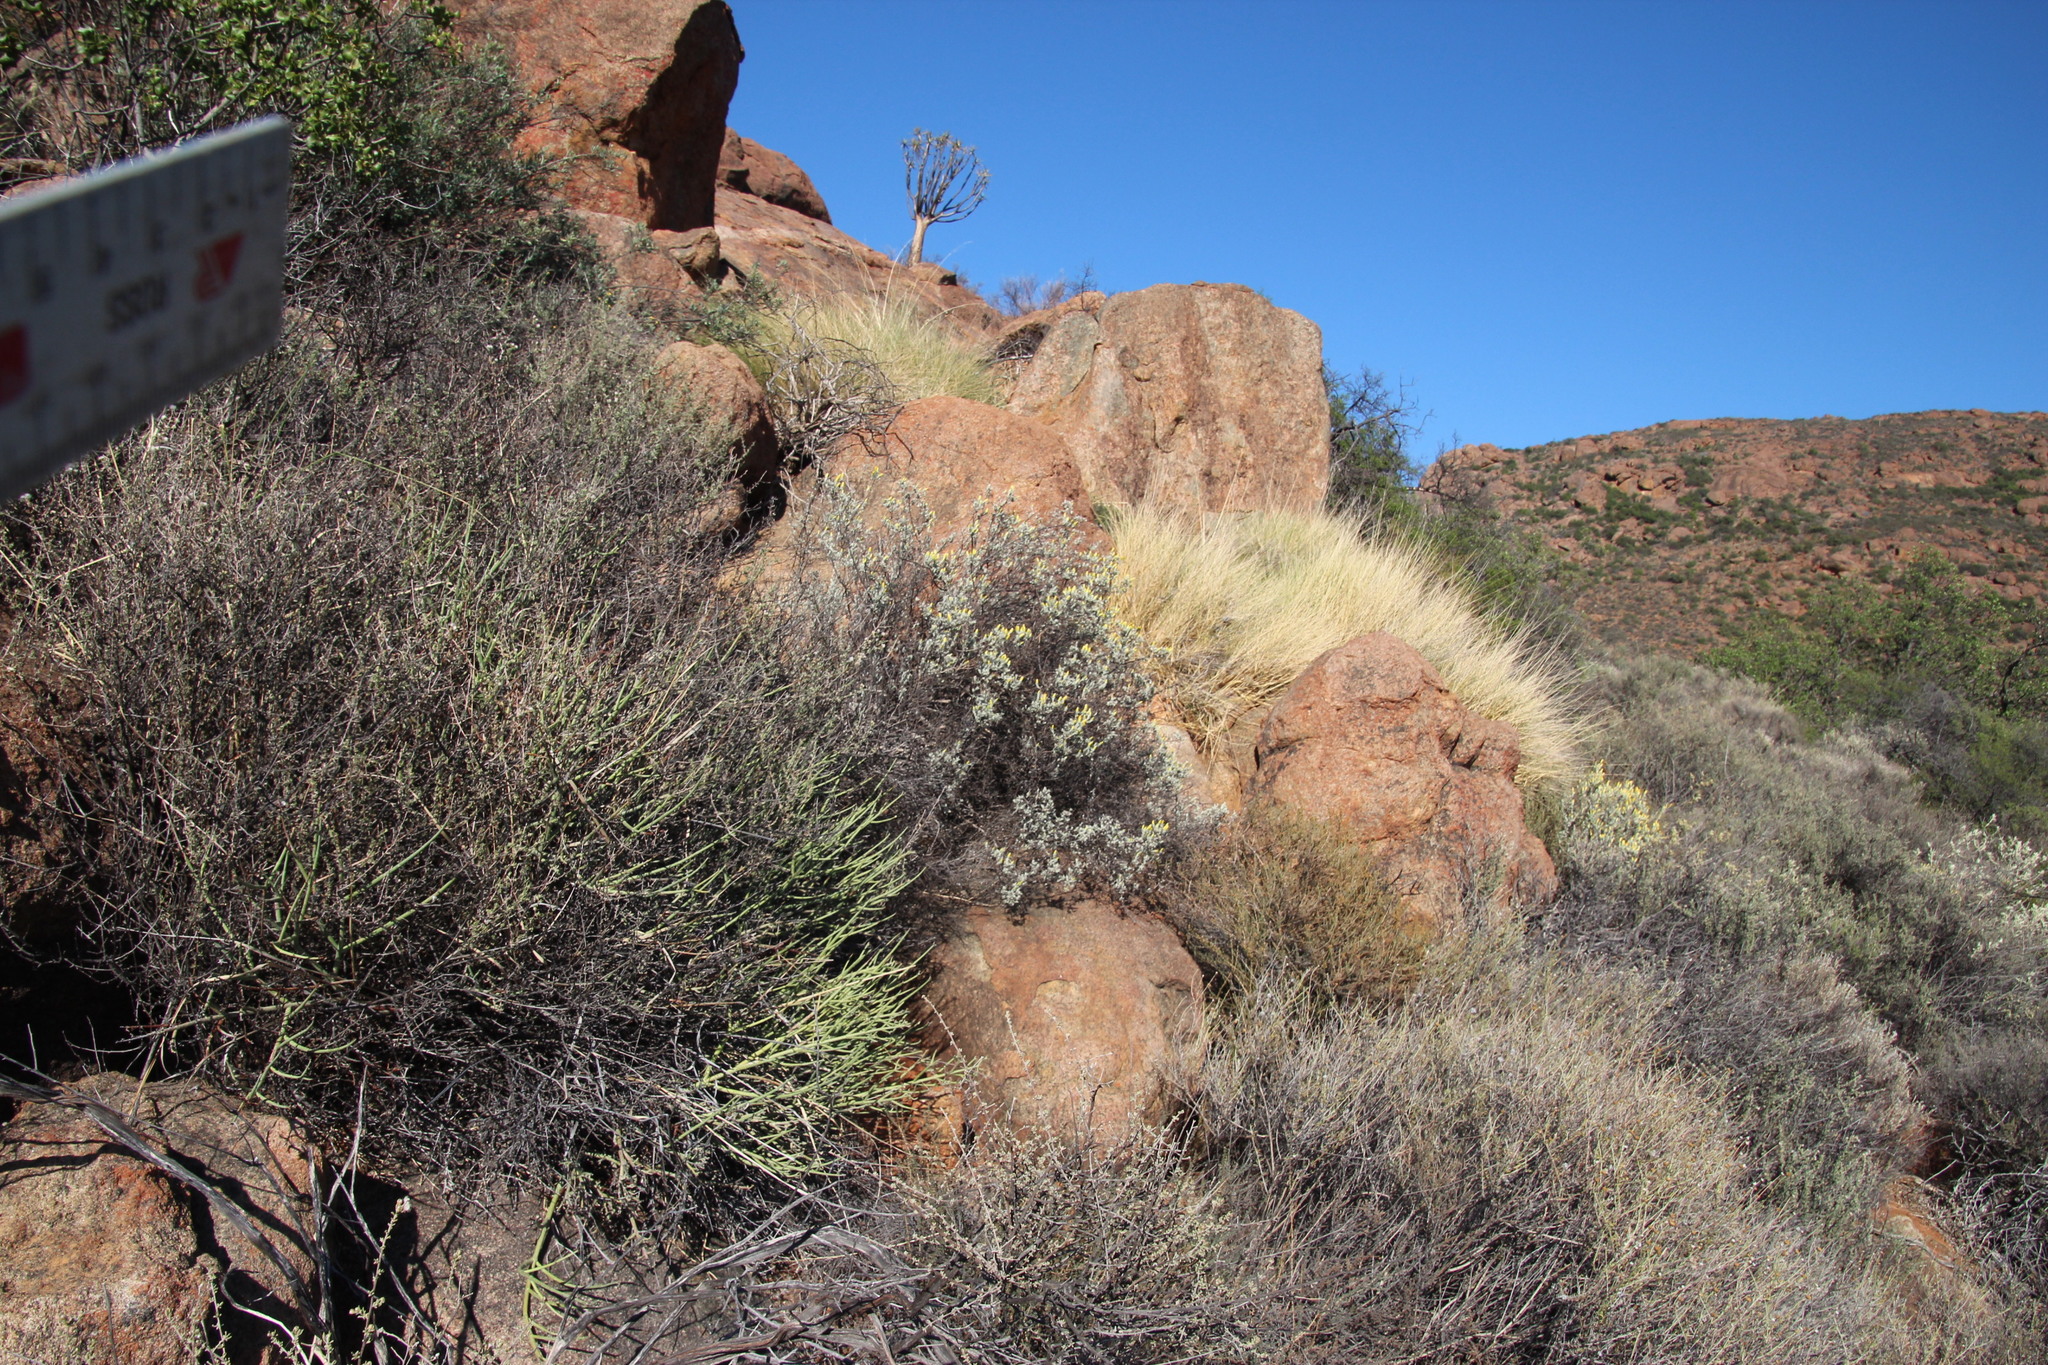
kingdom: Plantae
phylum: Tracheophyta
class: Magnoliopsida
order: Asterales
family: Asteraceae
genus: Pteronia
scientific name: Pteronia incana
